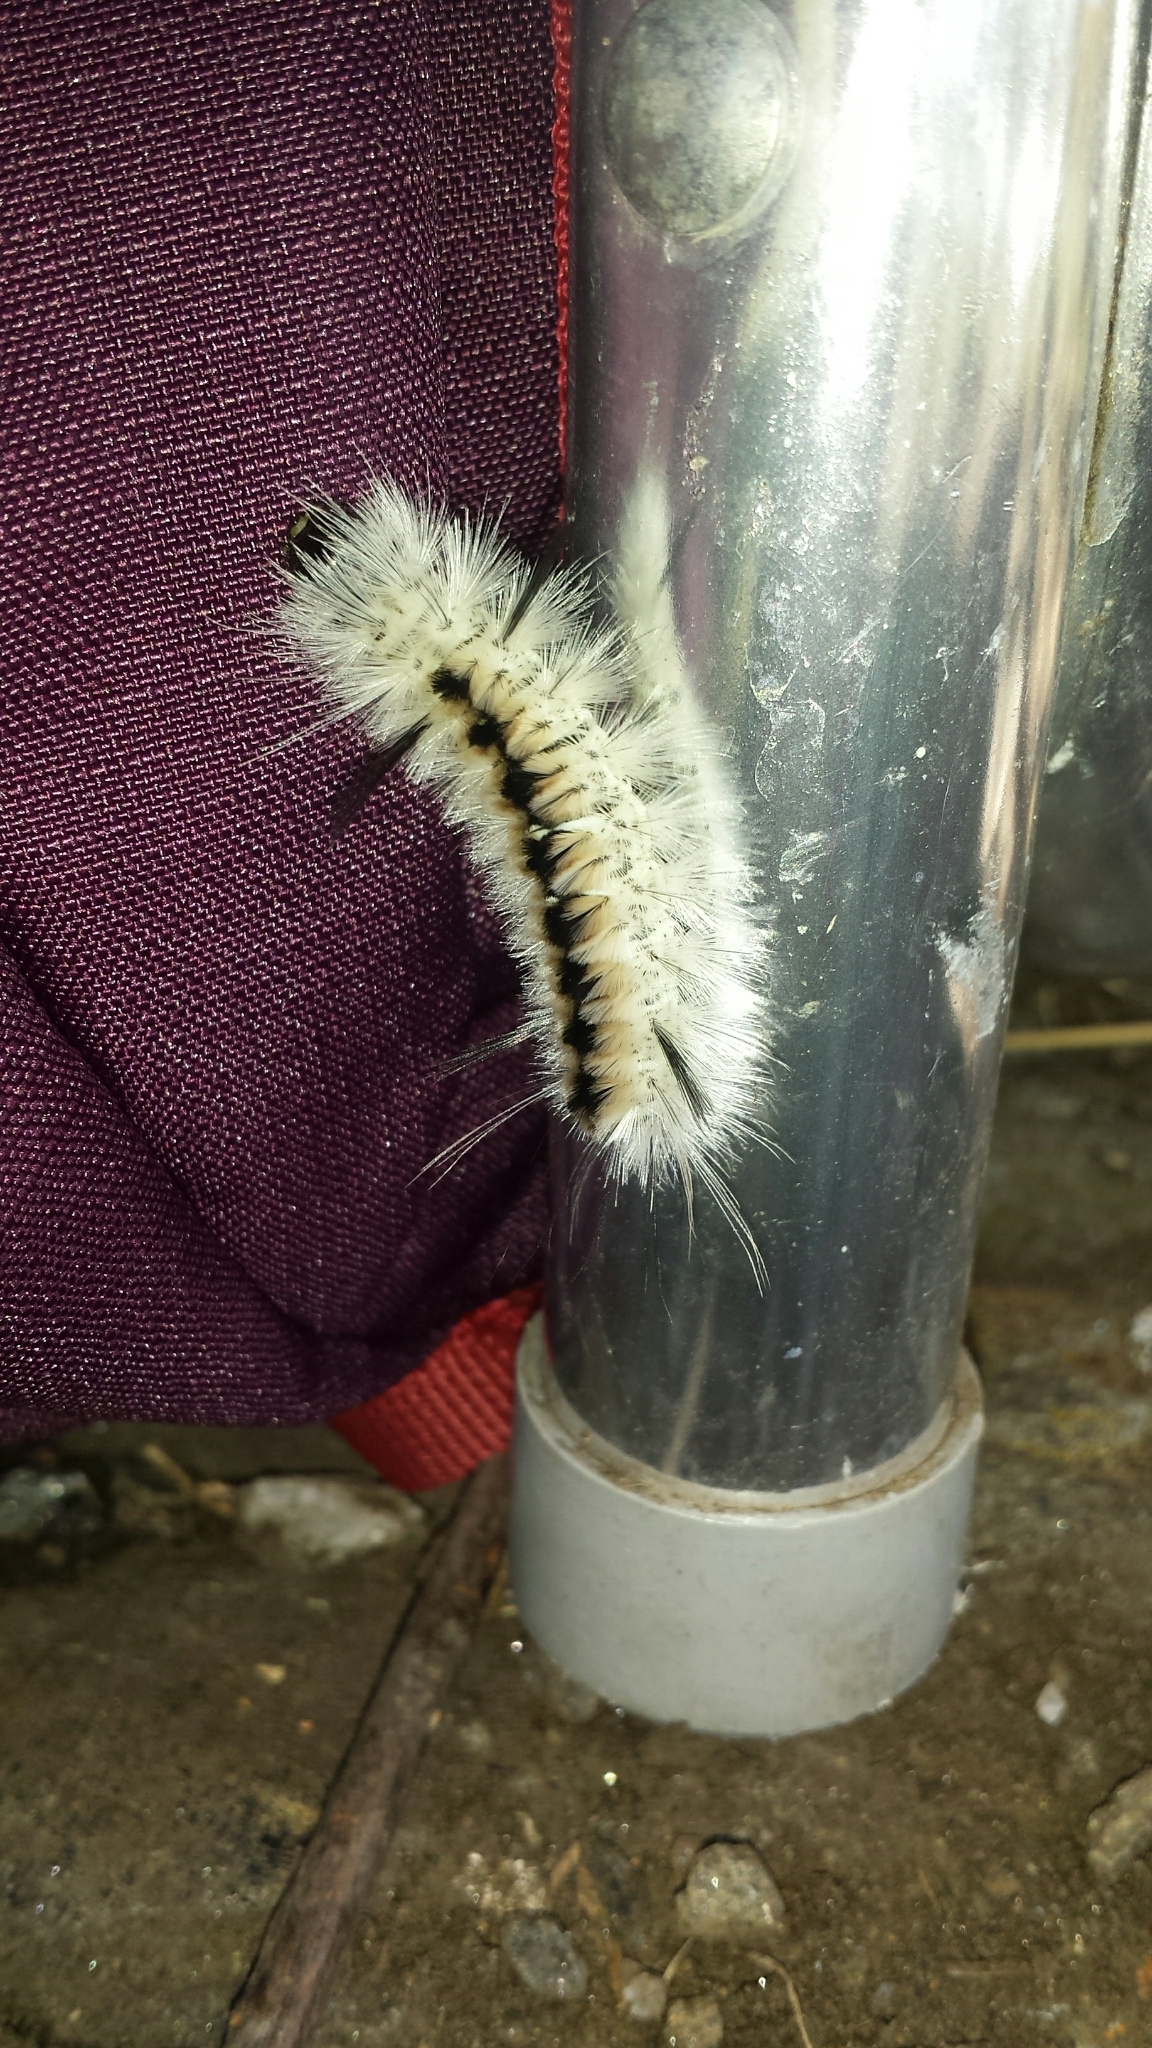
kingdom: Animalia
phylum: Arthropoda
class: Insecta
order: Lepidoptera
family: Erebidae
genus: Lophocampa
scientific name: Lophocampa caryae
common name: Hickory tussock moth
